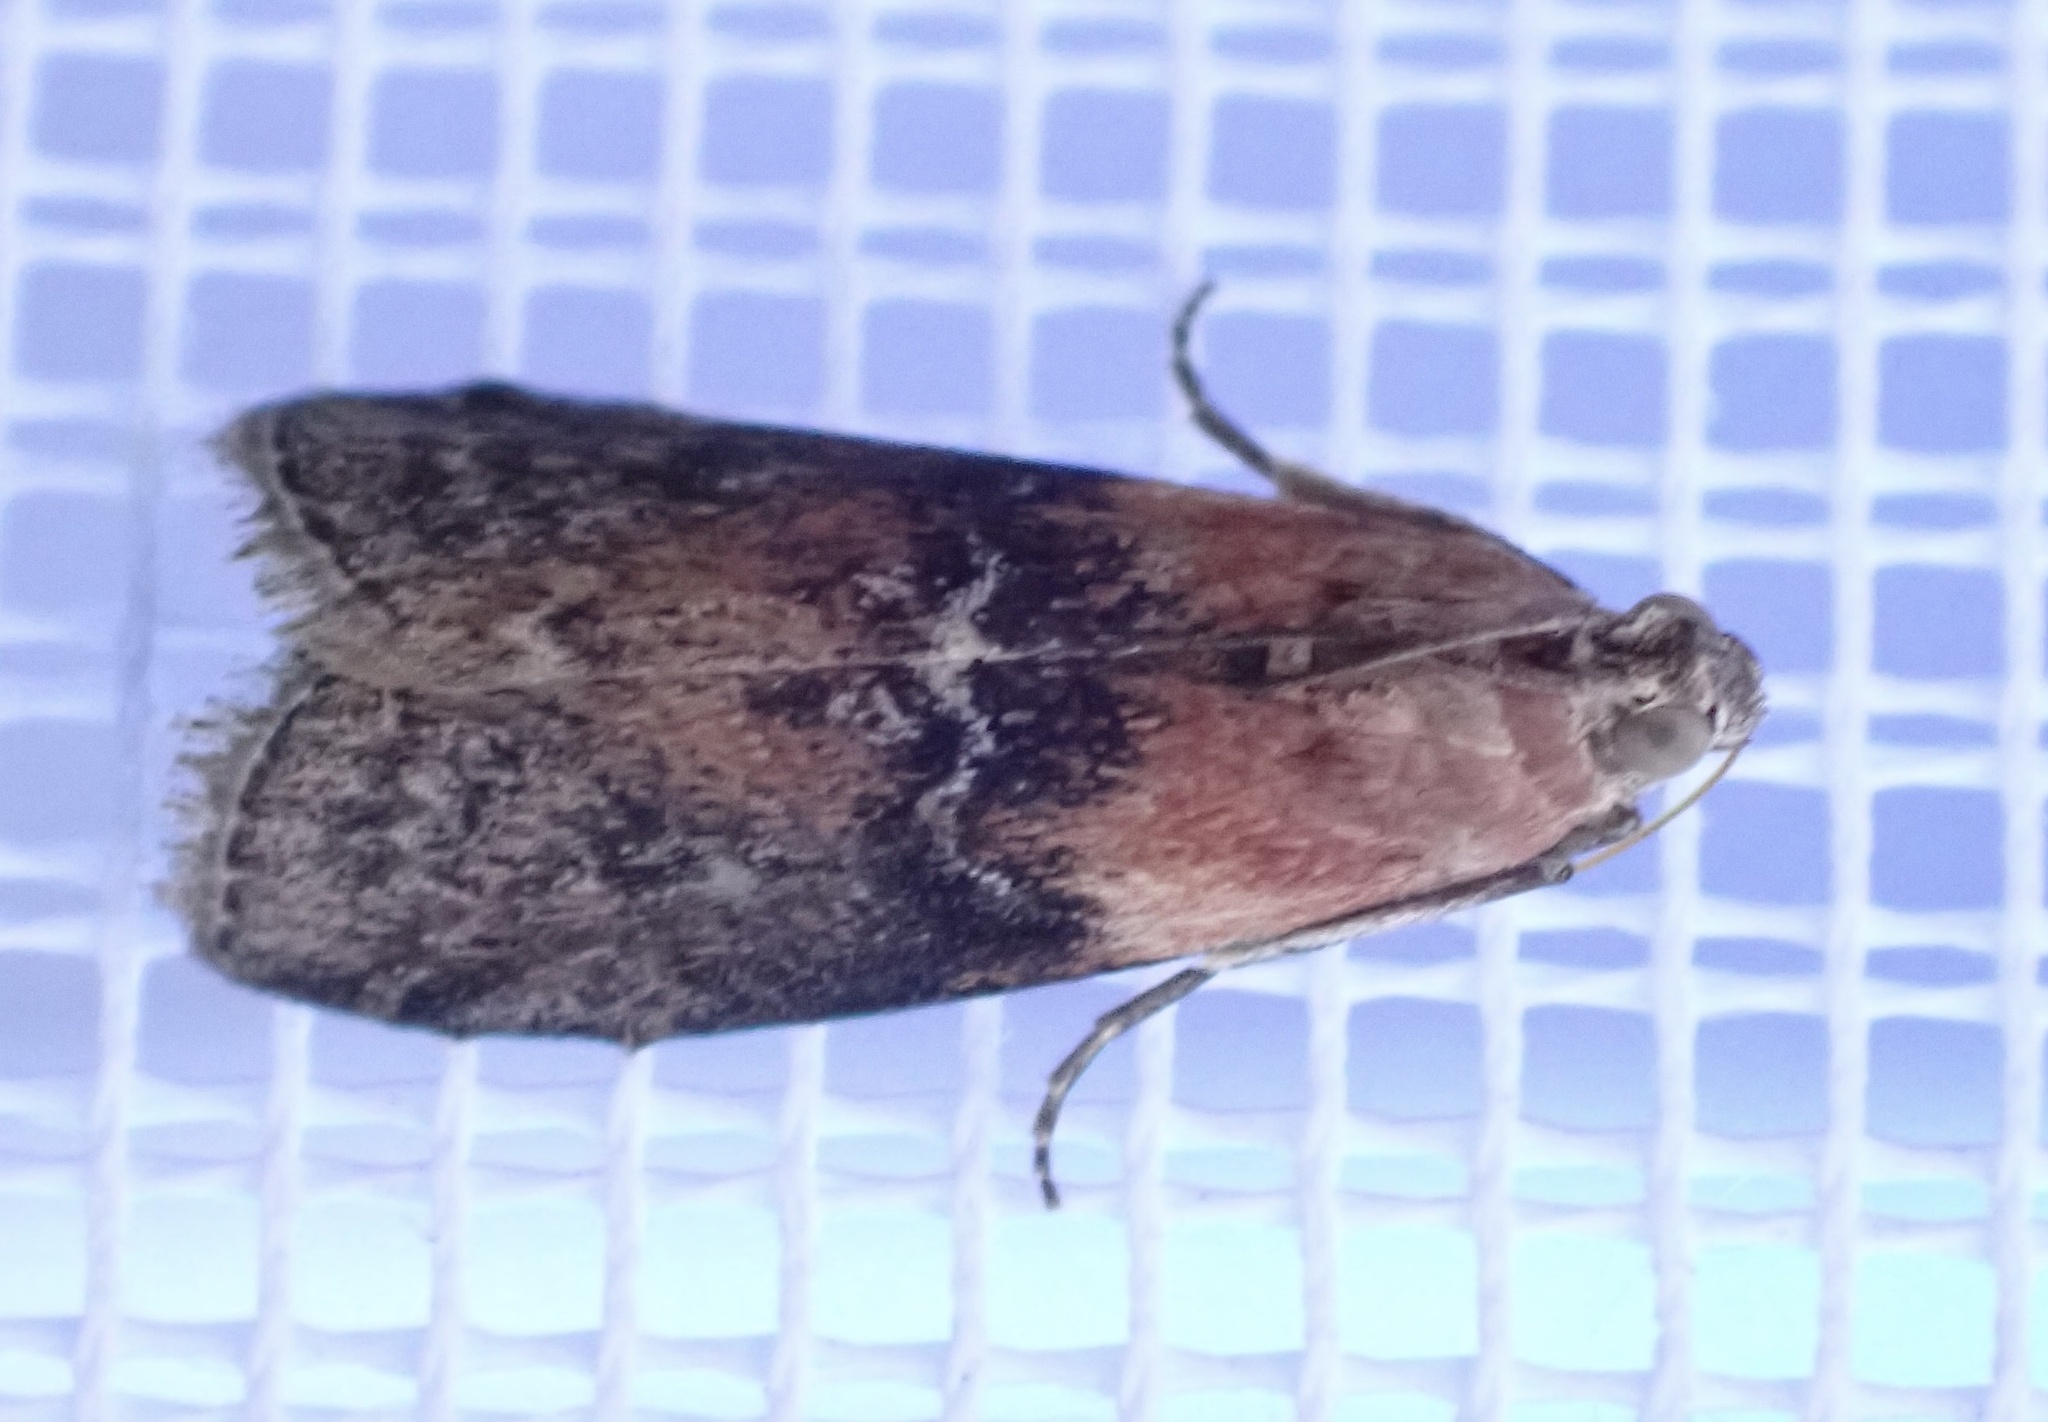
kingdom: Animalia
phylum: Arthropoda
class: Insecta
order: Lepidoptera
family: Pyralidae
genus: Sciota
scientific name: Sciota adelphella
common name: Willow knot-horn
